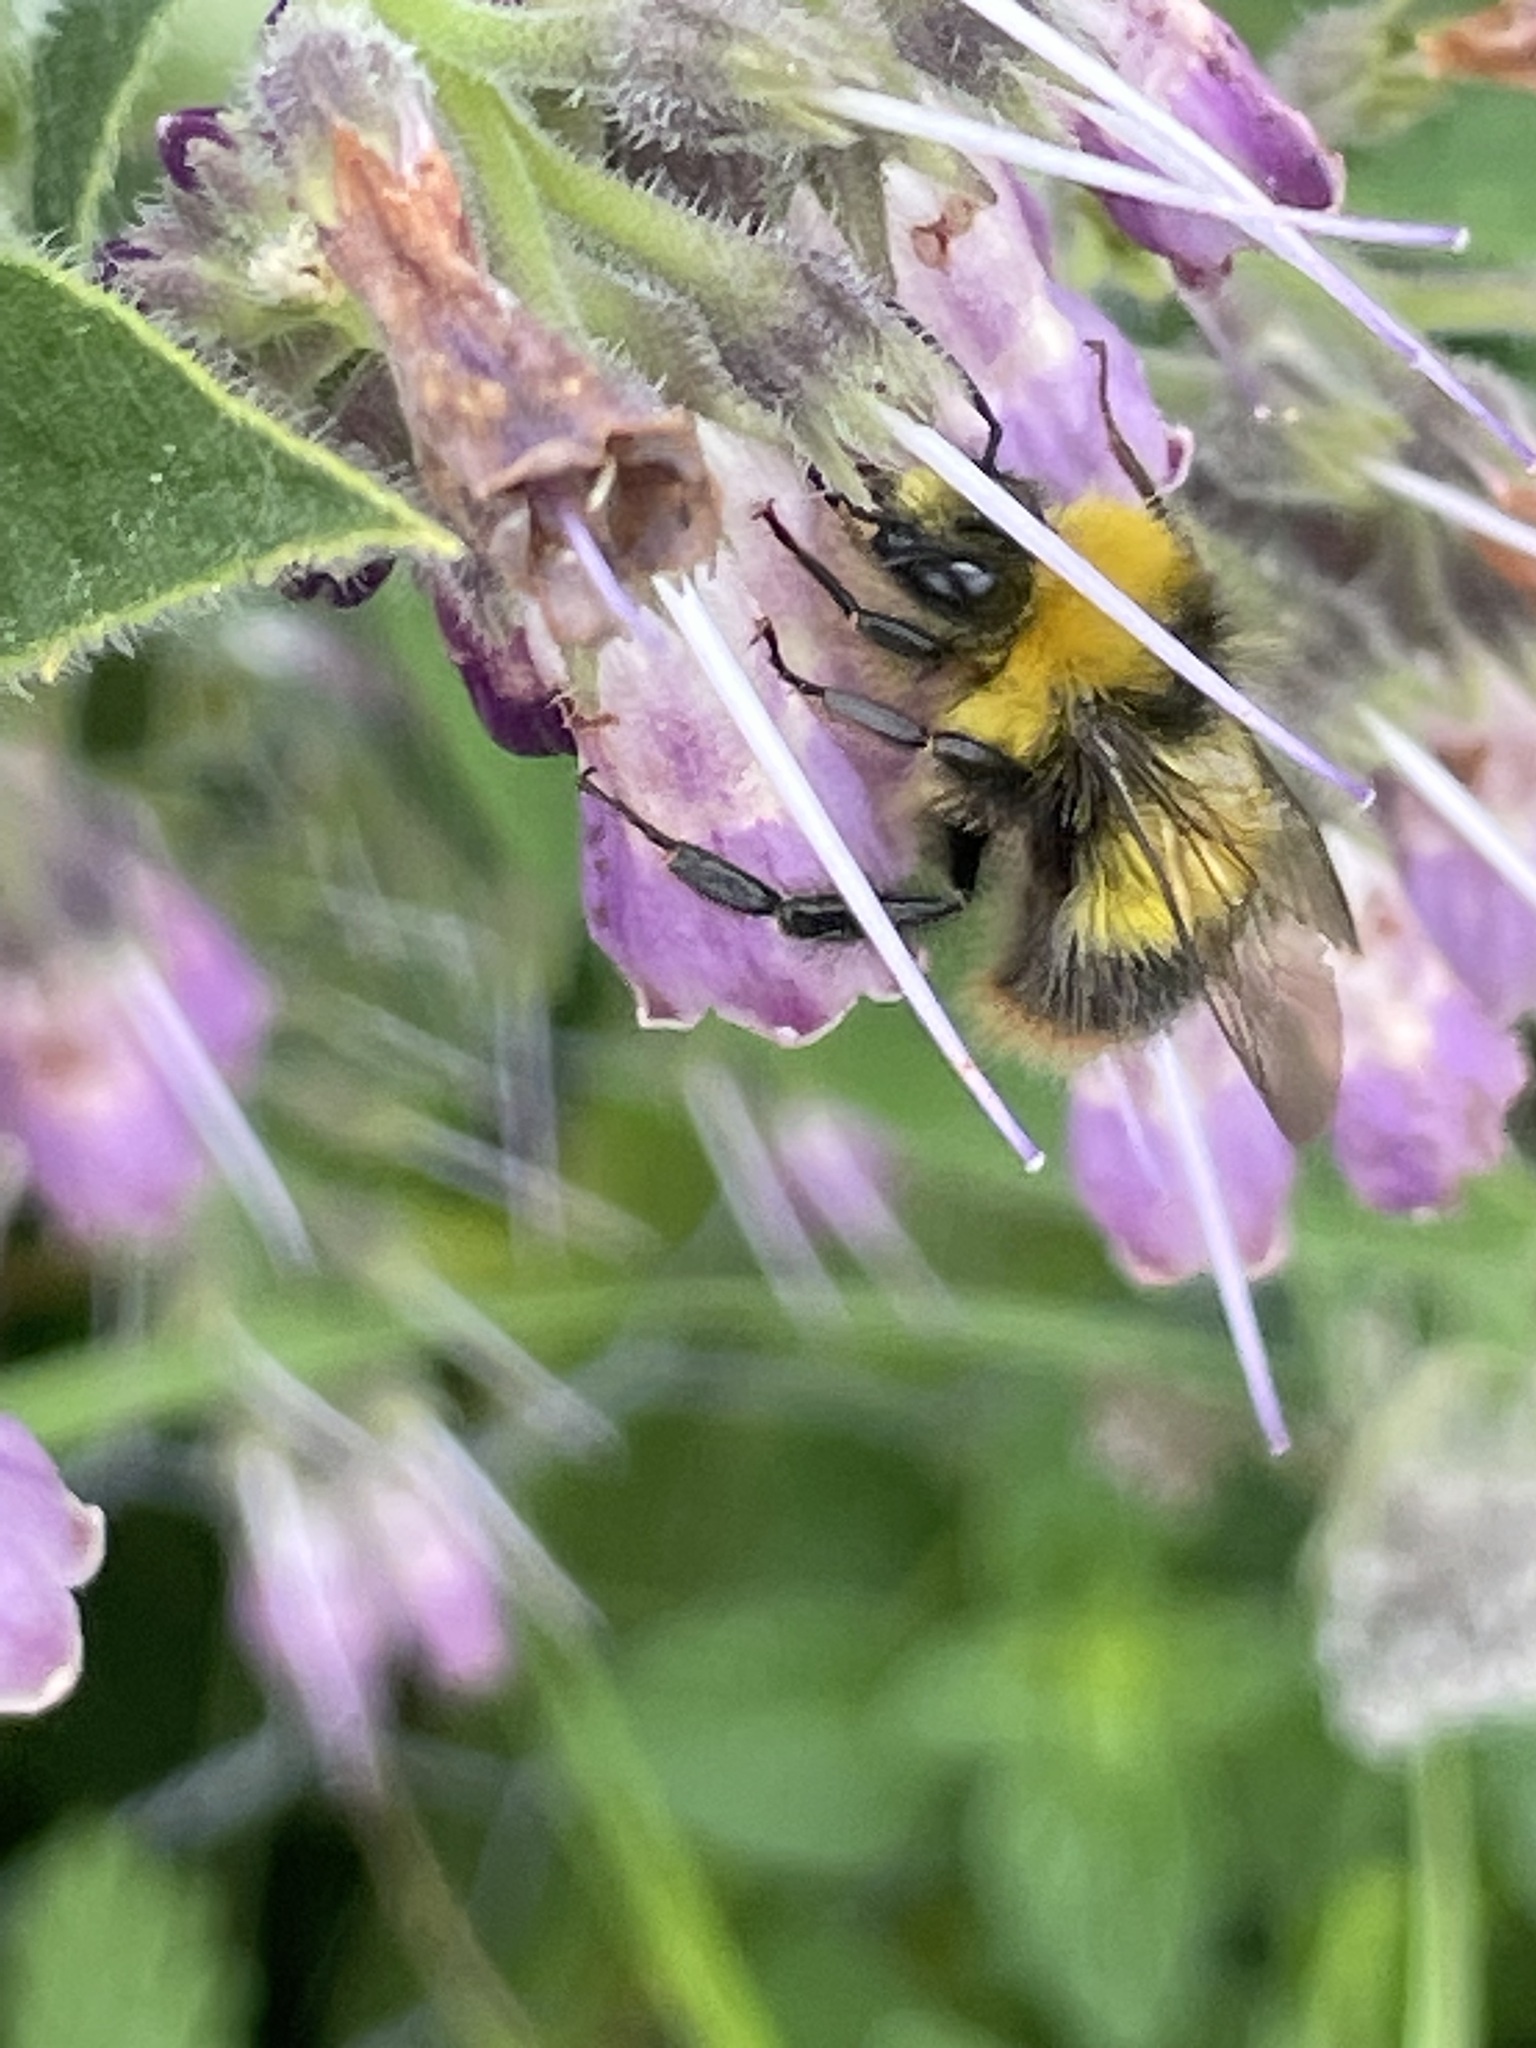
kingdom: Animalia
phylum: Arthropoda
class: Insecta
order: Hymenoptera
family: Apidae
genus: Bombus
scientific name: Bombus pratorum
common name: Early humble-bee
